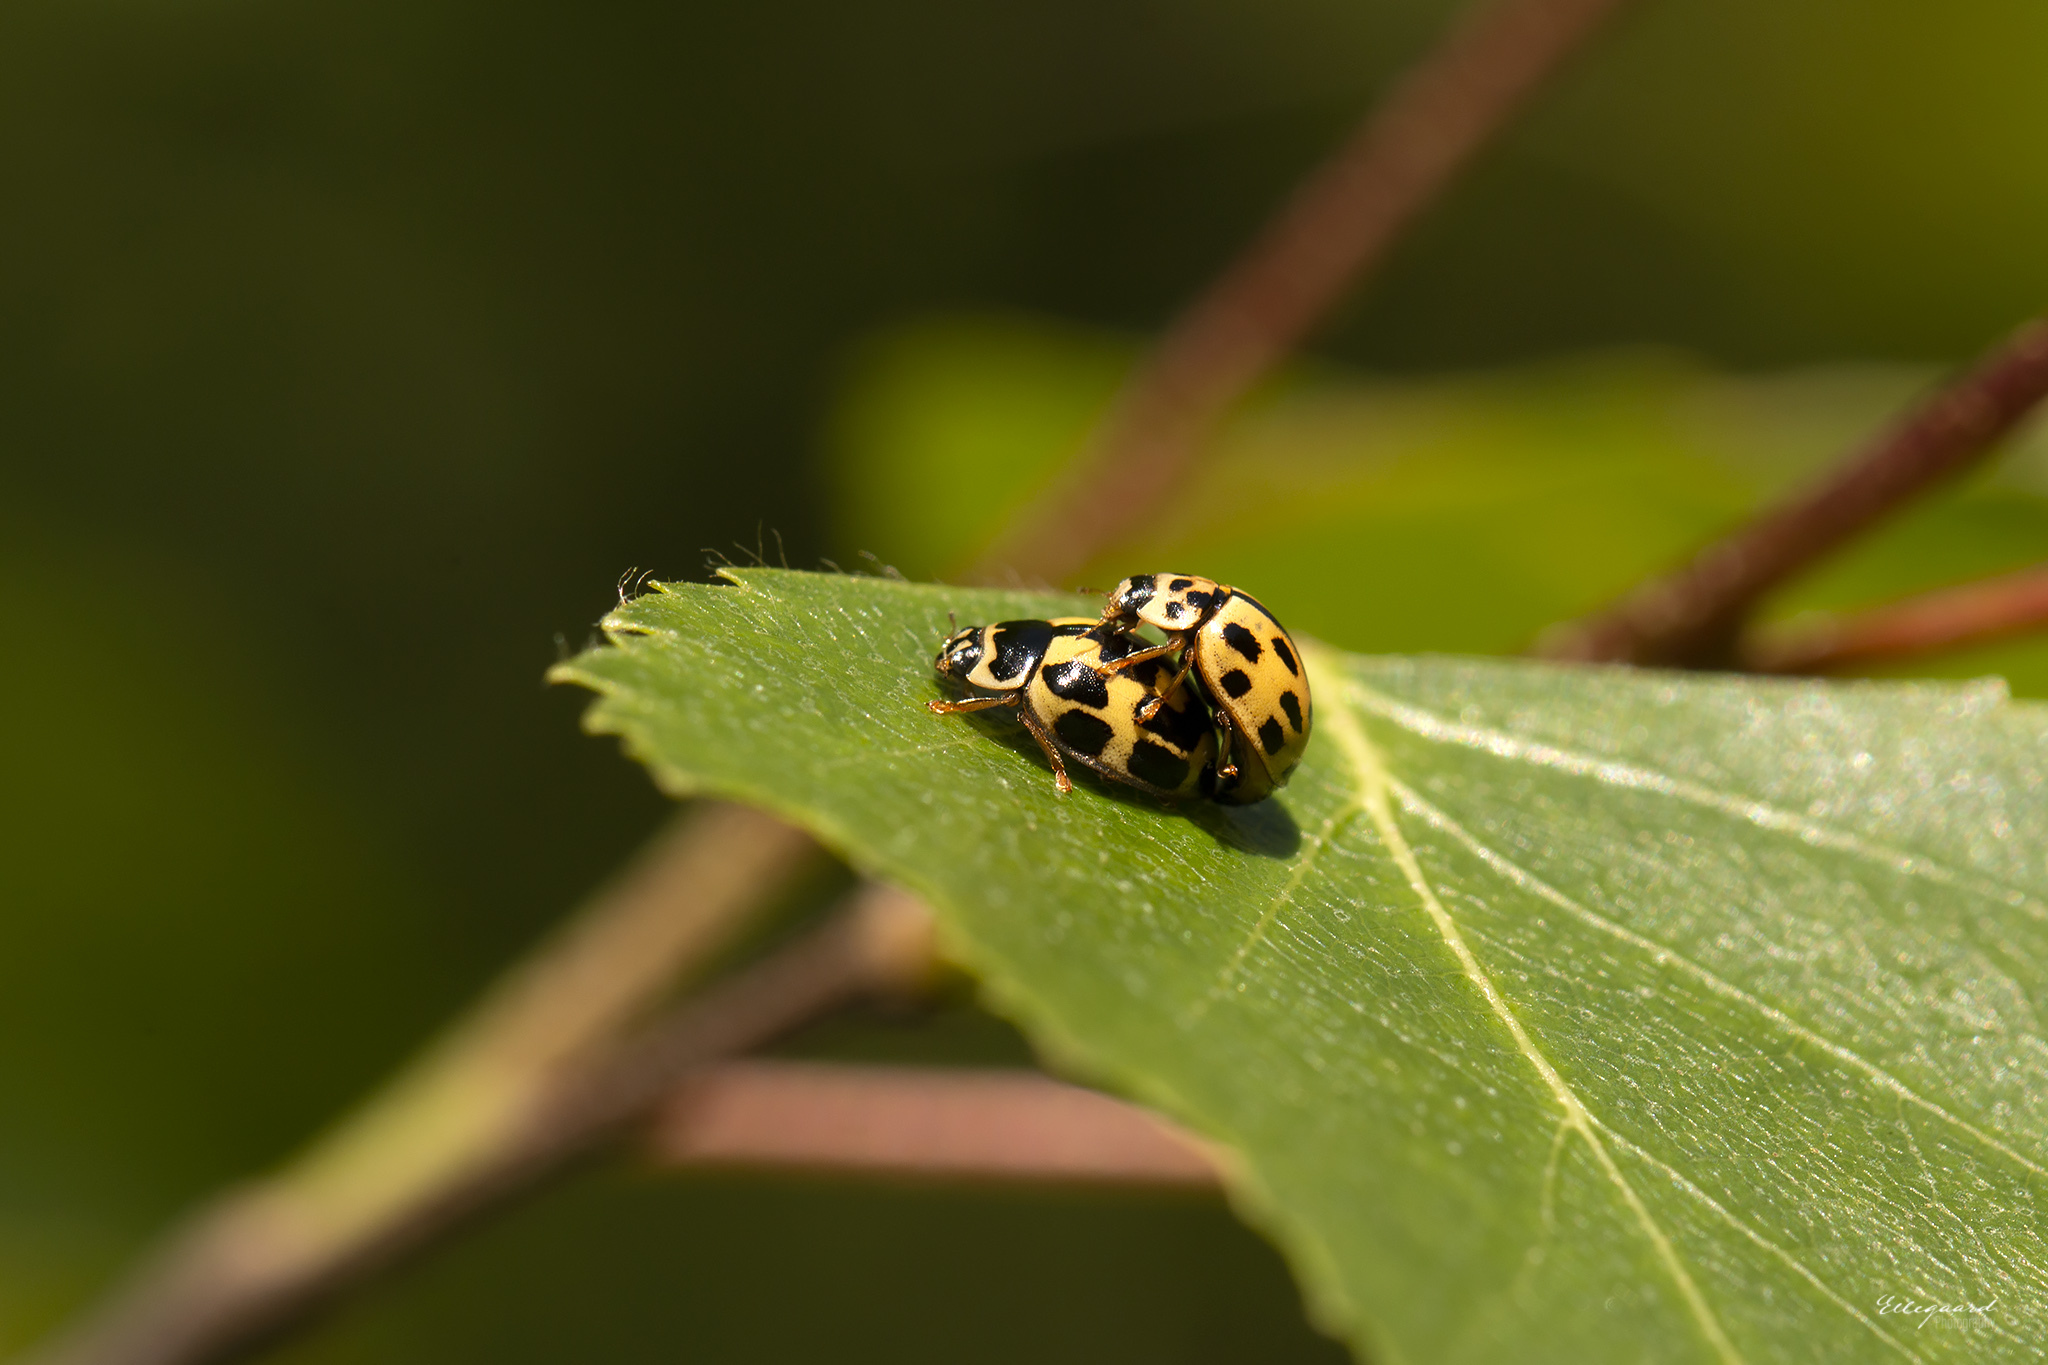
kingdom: Animalia
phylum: Arthropoda
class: Insecta
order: Coleoptera
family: Coccinellidae
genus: Propylaea
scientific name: Propylaea quatuordecimpunctata
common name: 14-spotted ladybird beetle
